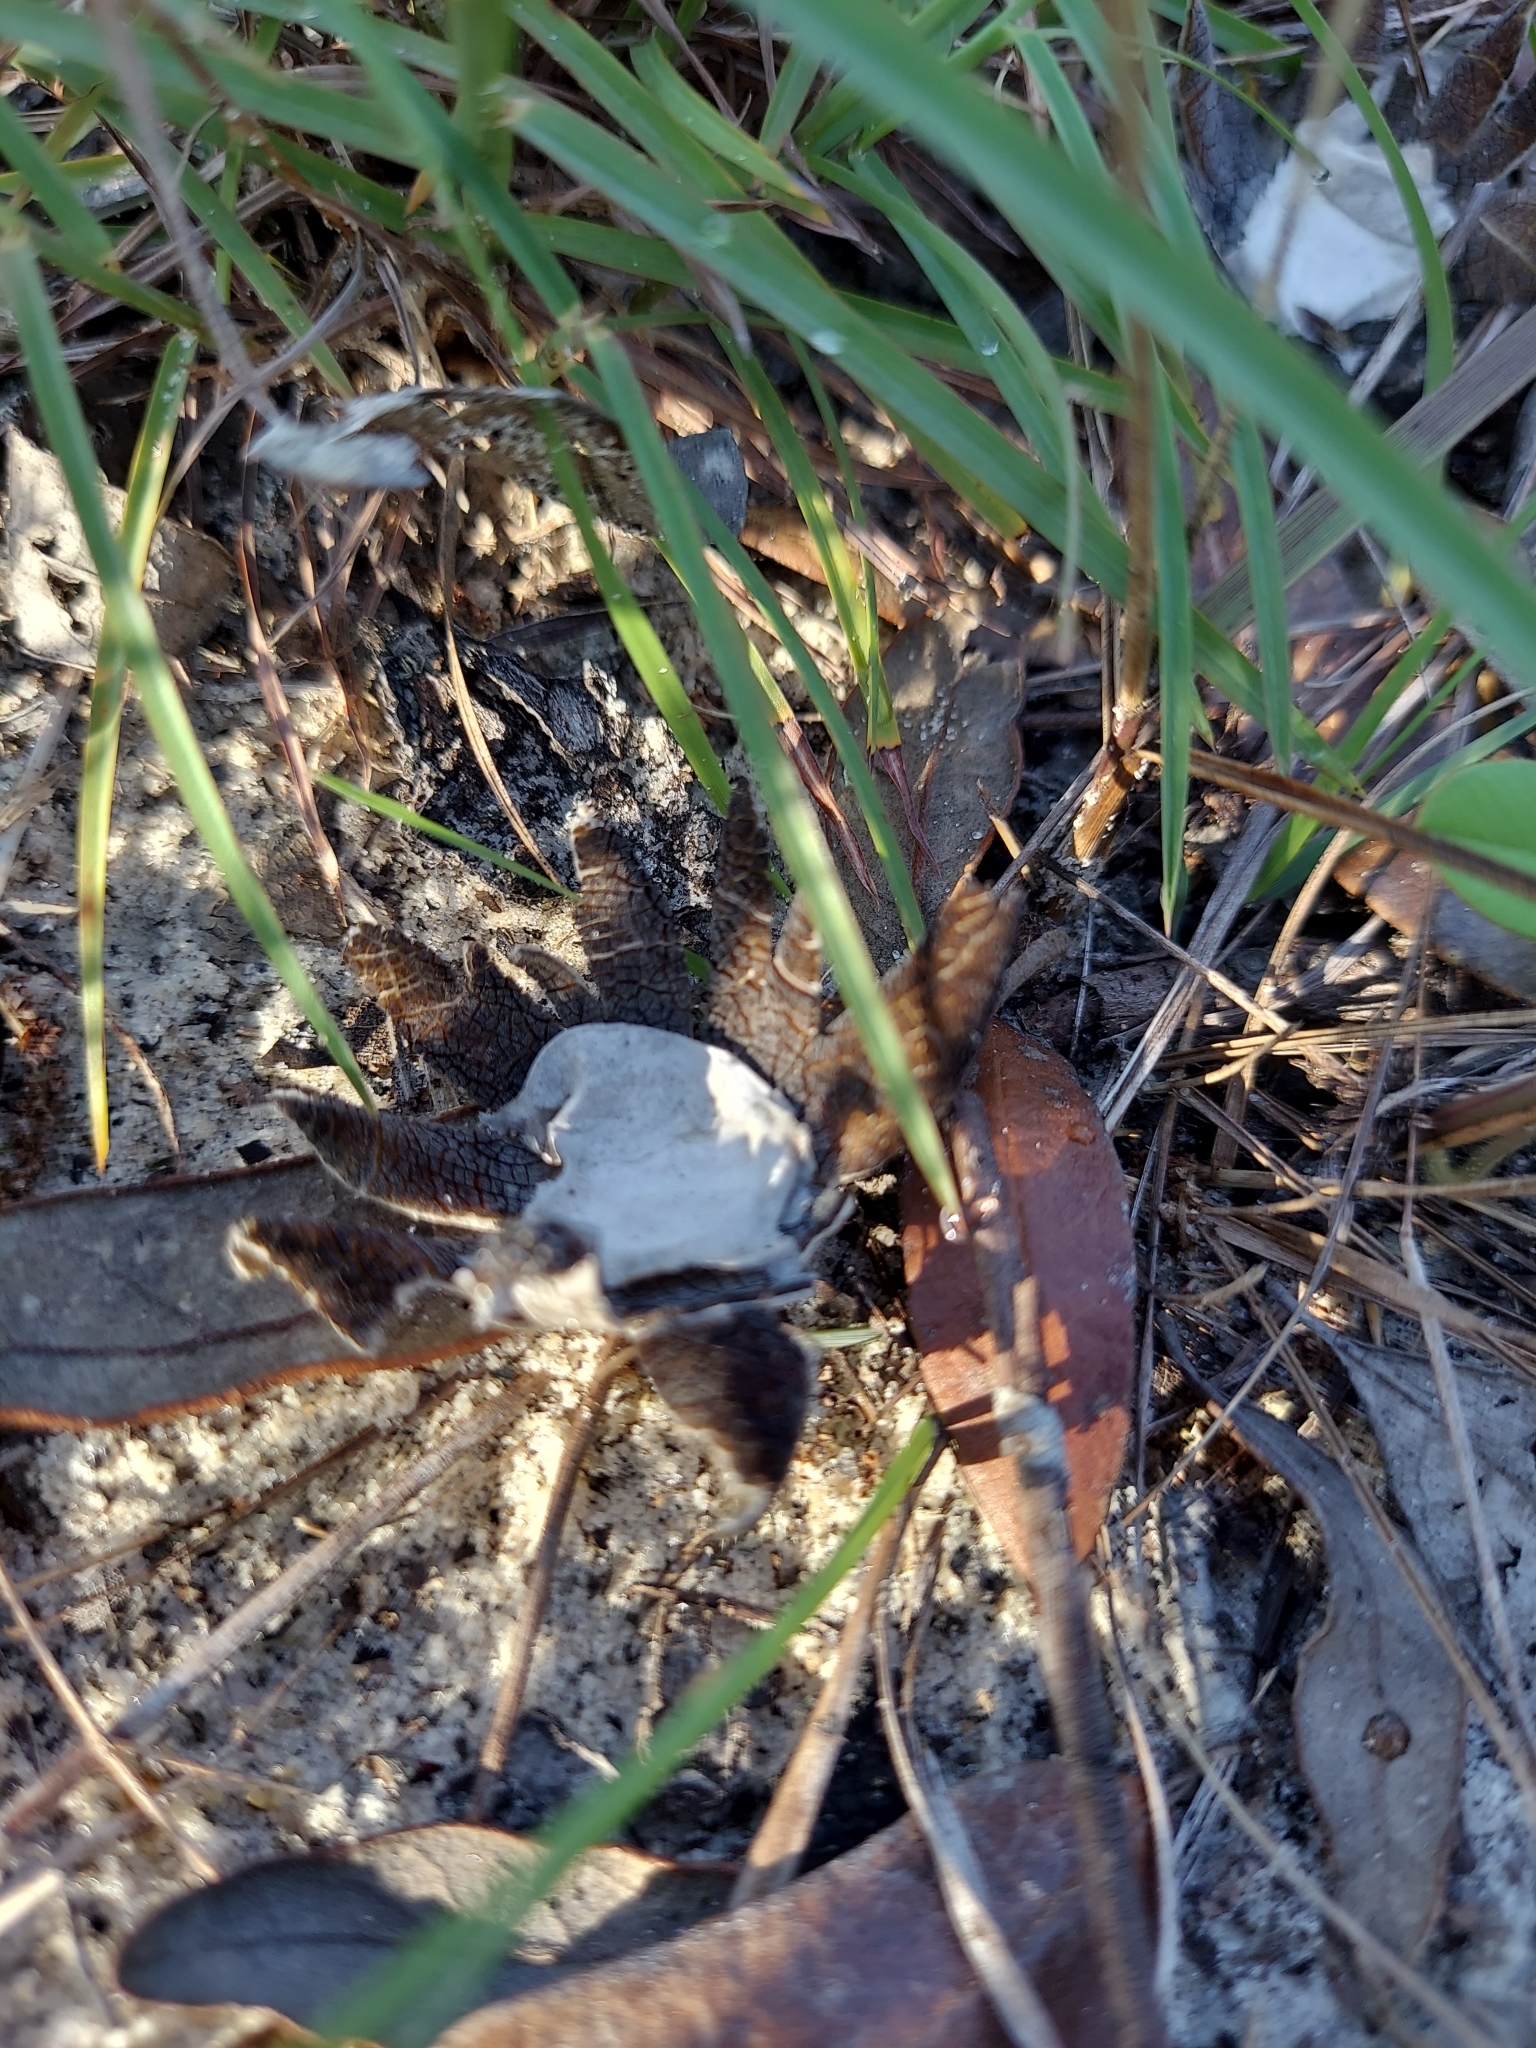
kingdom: Fungi
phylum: Basidiomycota
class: Agaricomycetes
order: Boletales
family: Diplocystidiaceae
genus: Astraeus
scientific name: Astraeus
